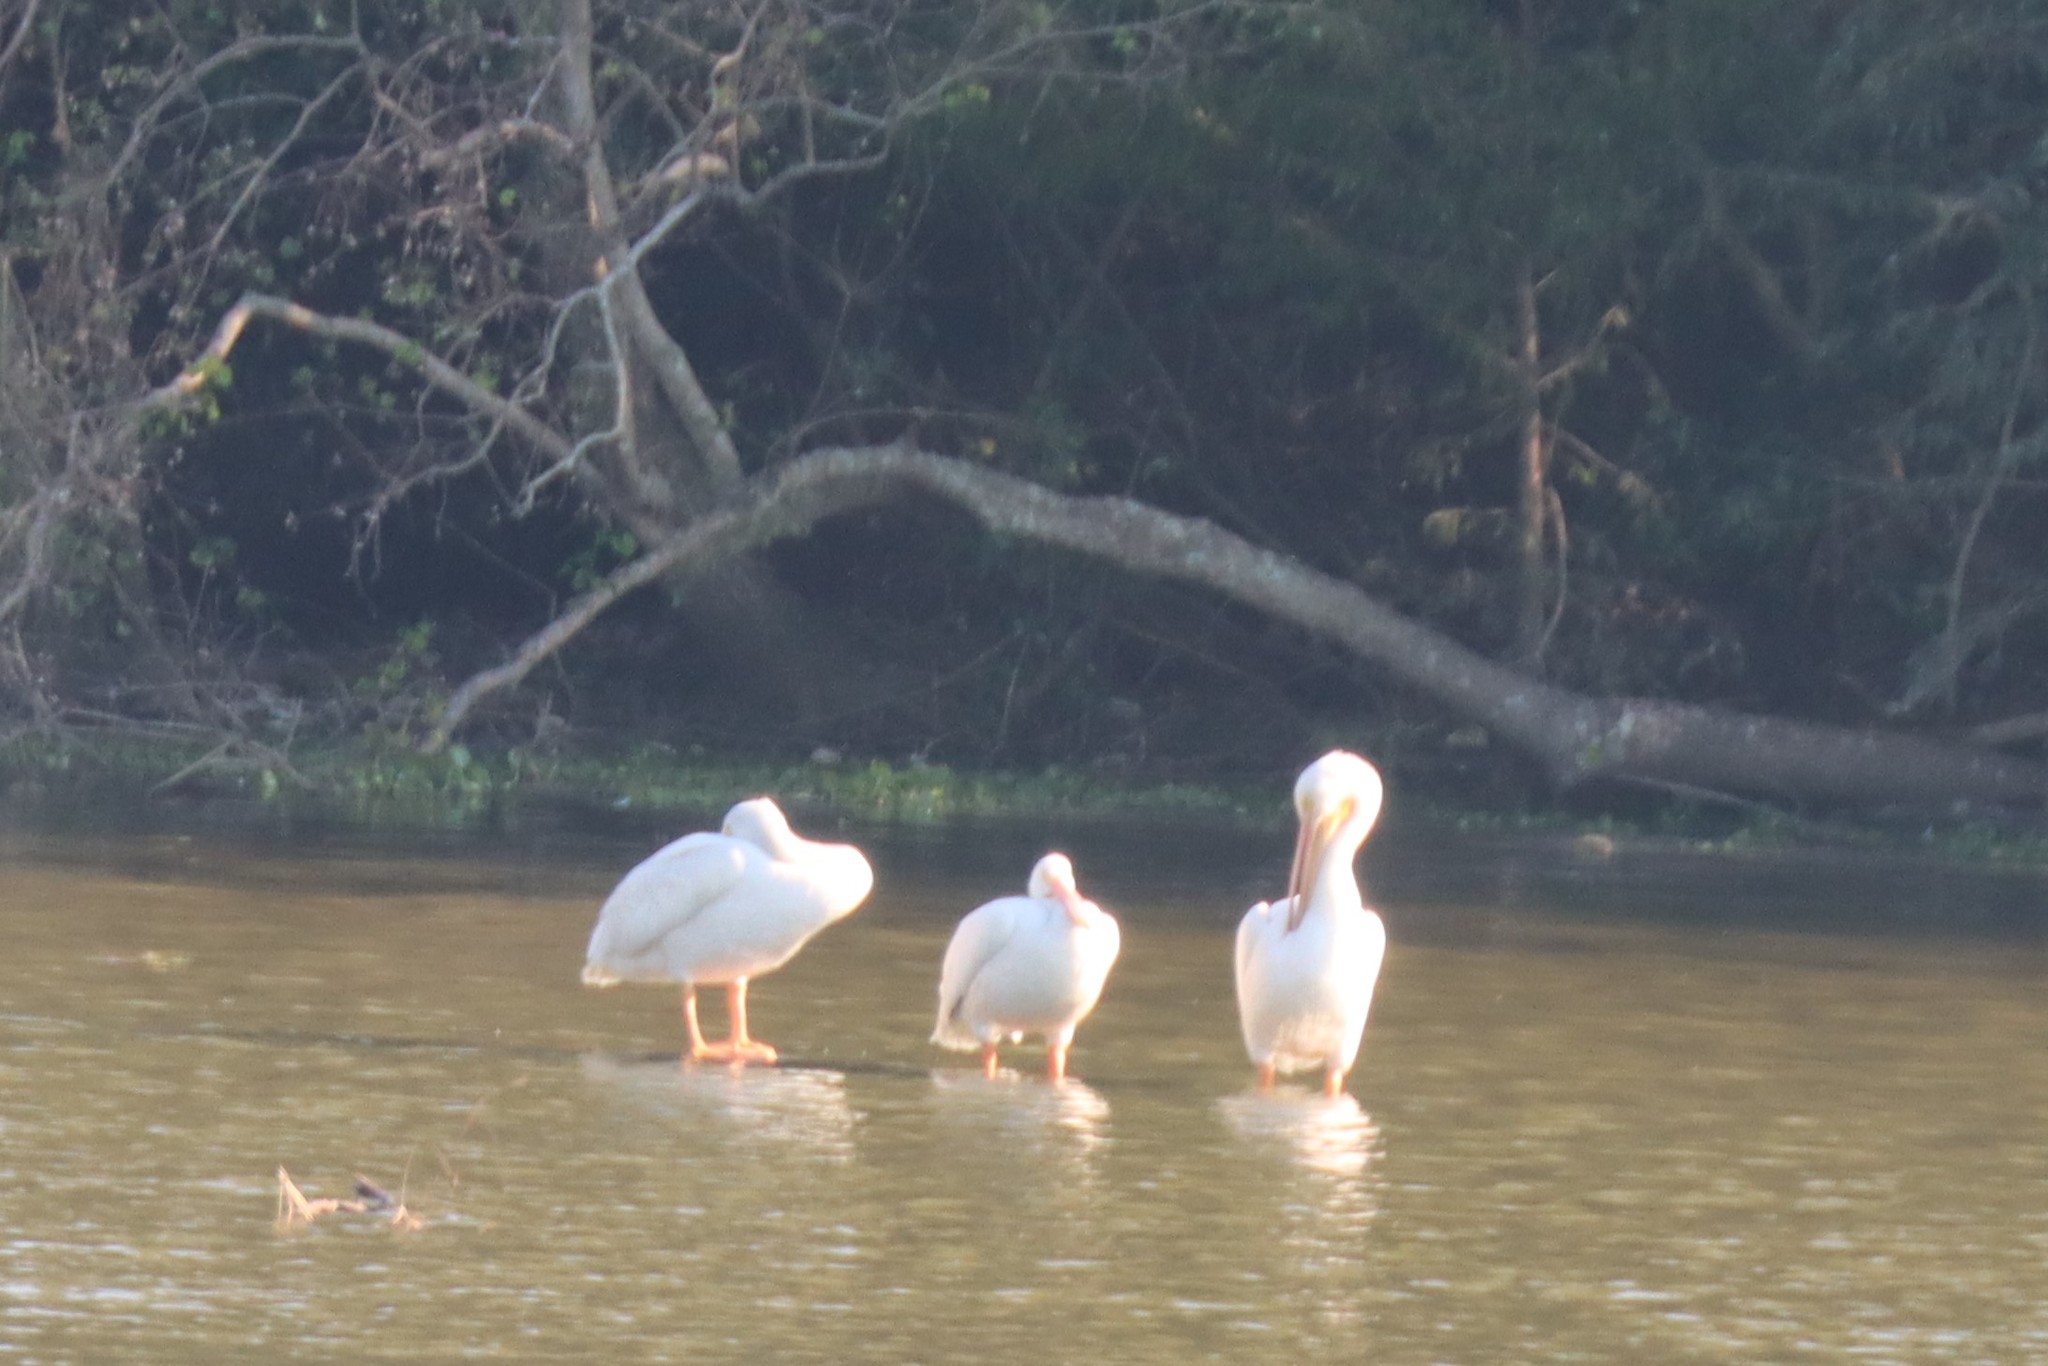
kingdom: Animalia
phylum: Chordata
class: Aves
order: Pelecaniformes
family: Pelecanidae
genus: Pelecanus
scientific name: Pelecanus erythrorhynchos
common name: American white pelican
